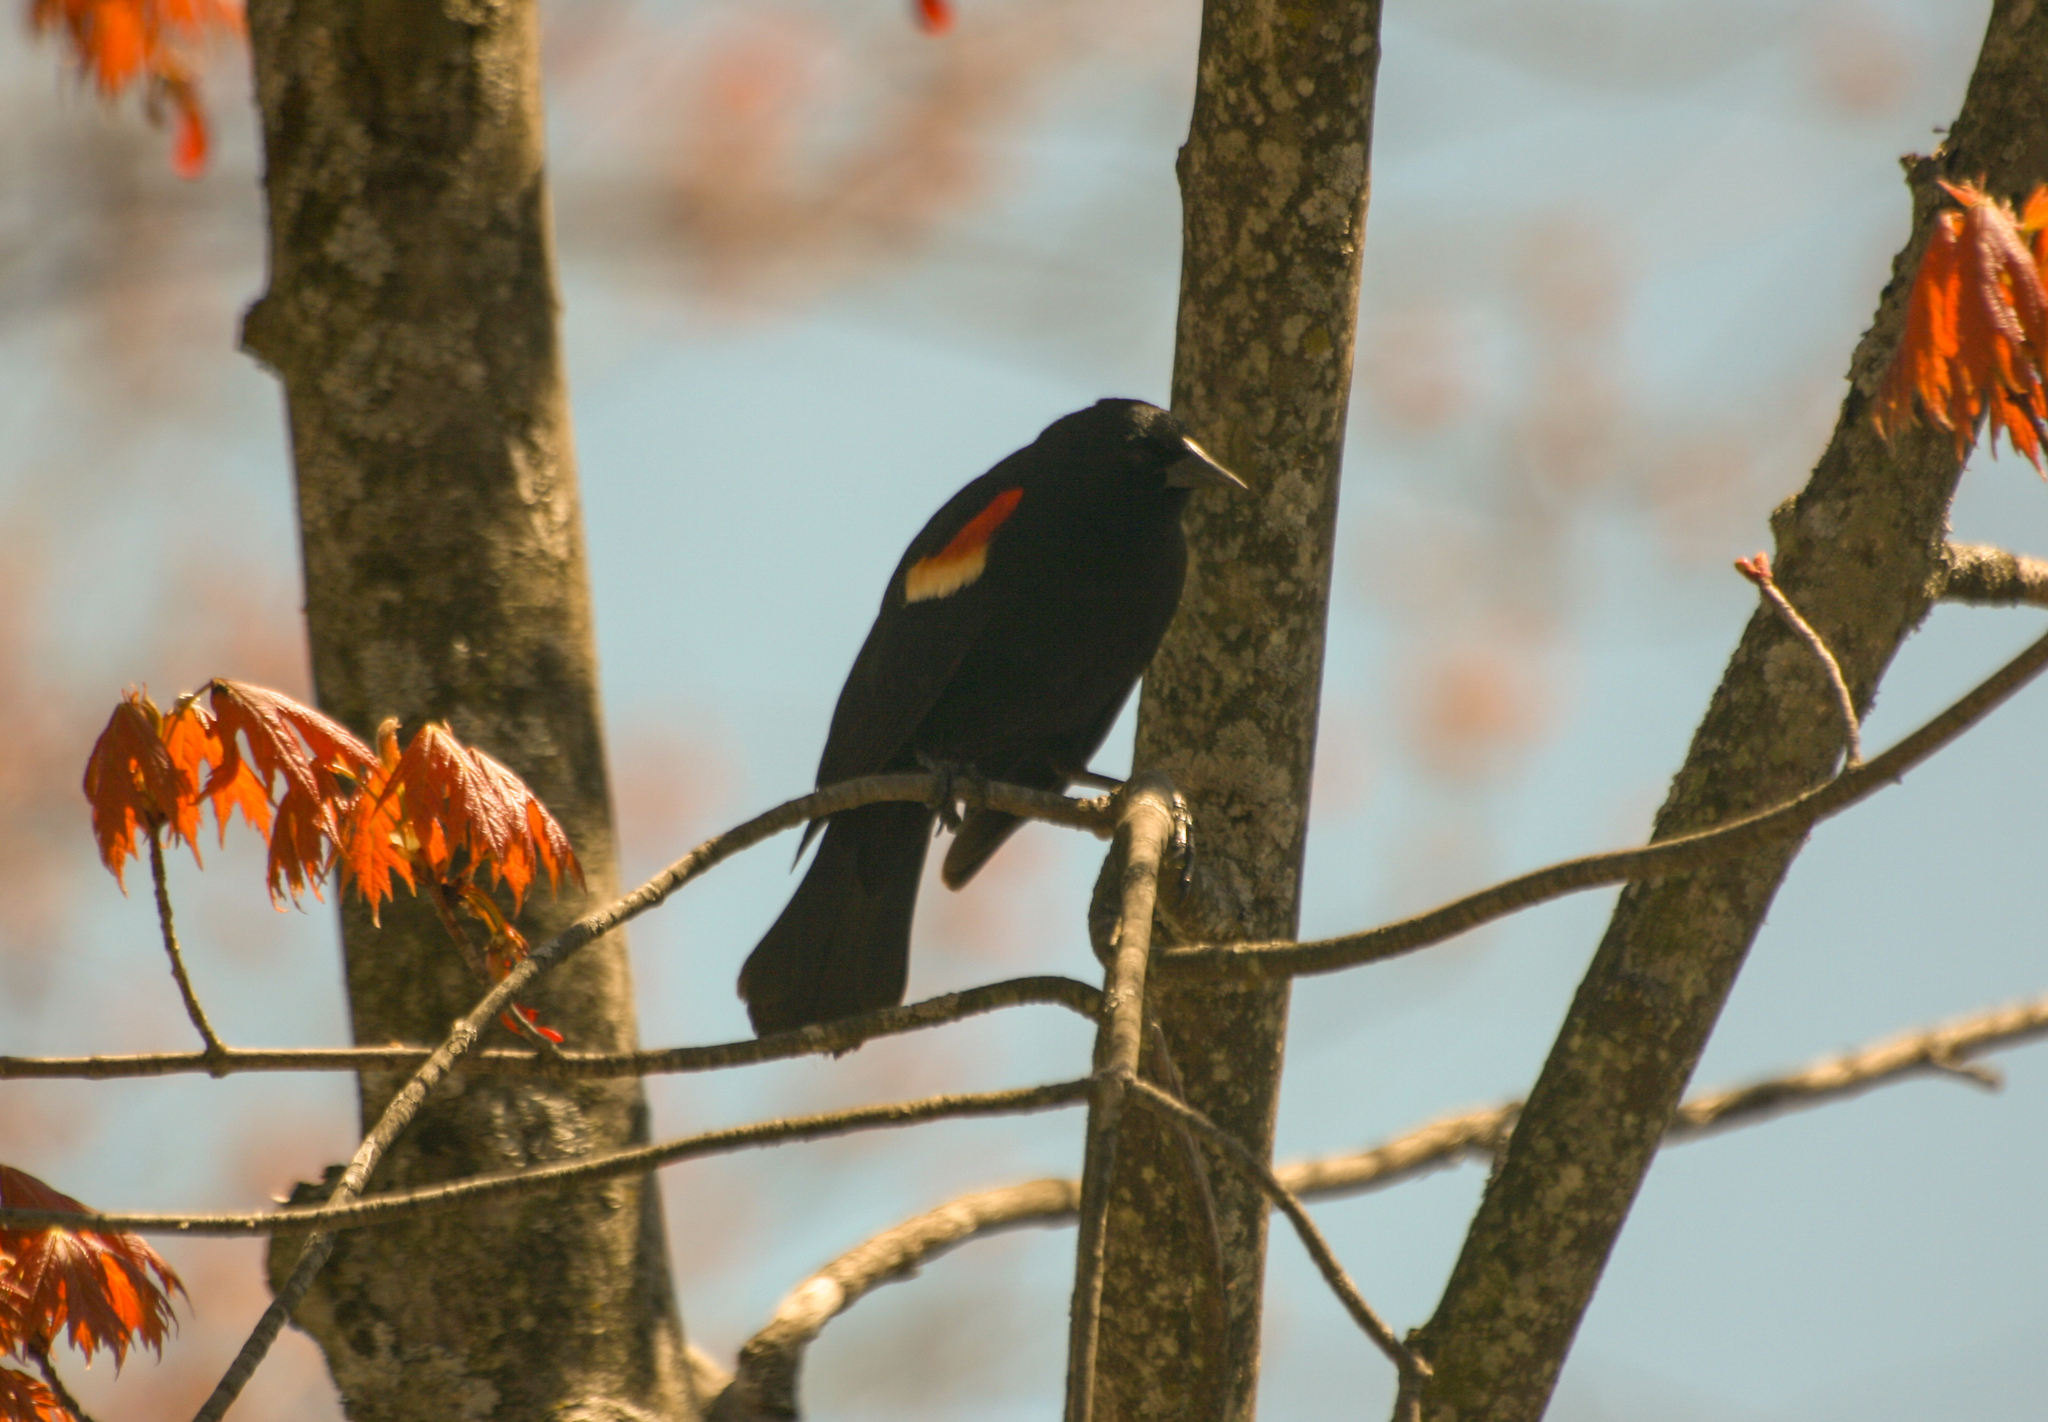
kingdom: Animalia
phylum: Chordata
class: Aves
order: Passeriformes
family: Icteridae
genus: Agelaius
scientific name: Agelaius phoeniceus
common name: Red-winged blackbird
